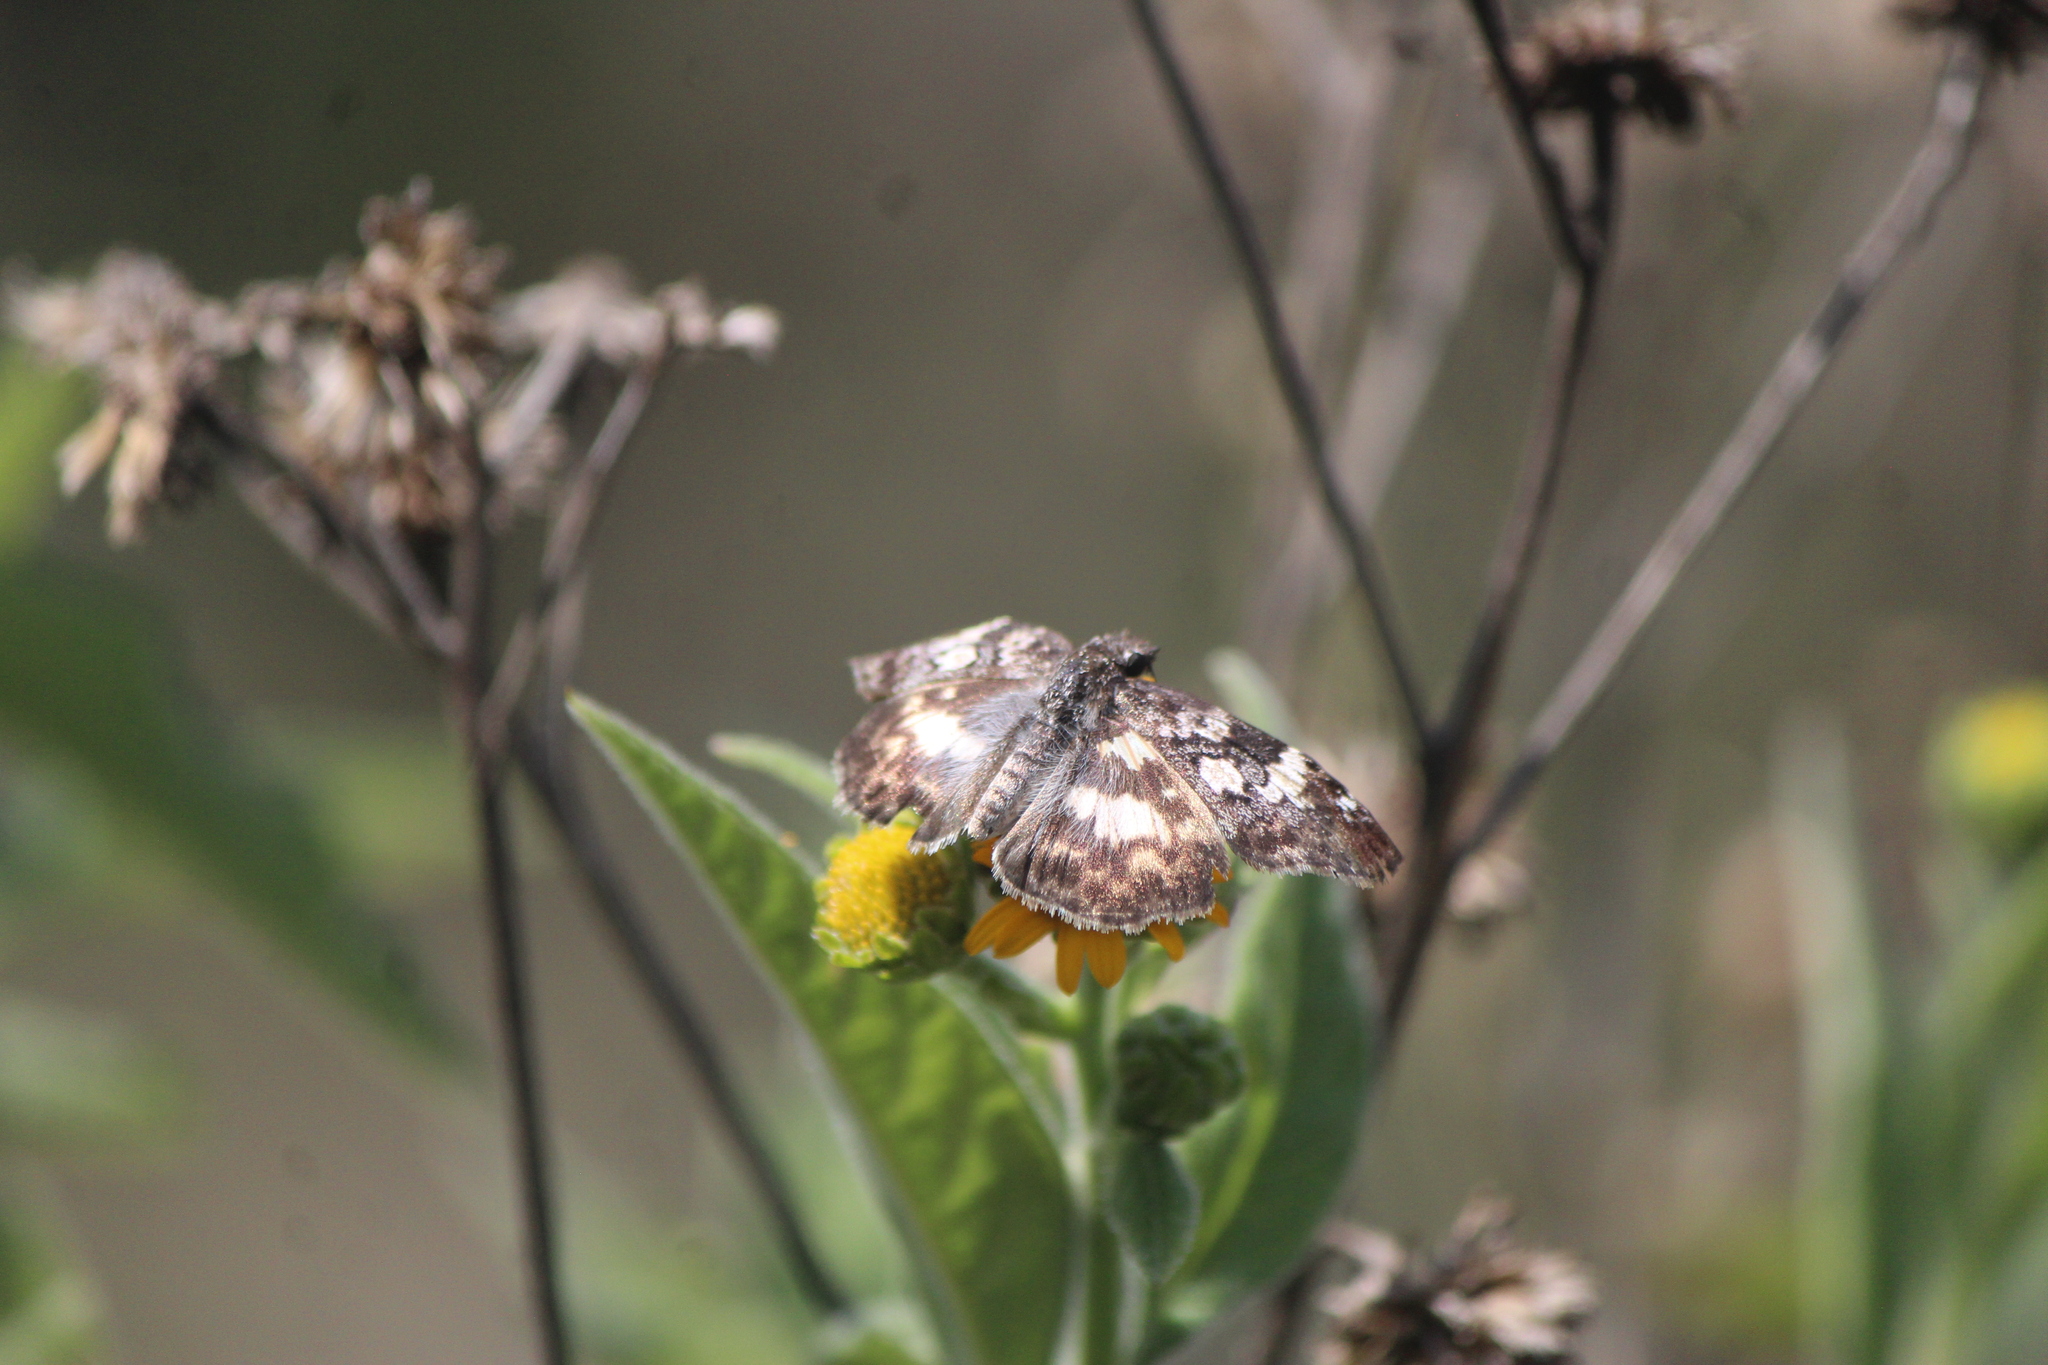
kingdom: Animalia
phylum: Arthropoda
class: Insecta
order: Lepidoptera
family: Hesperiidae
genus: Chiothion
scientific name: Chiothion georgina
